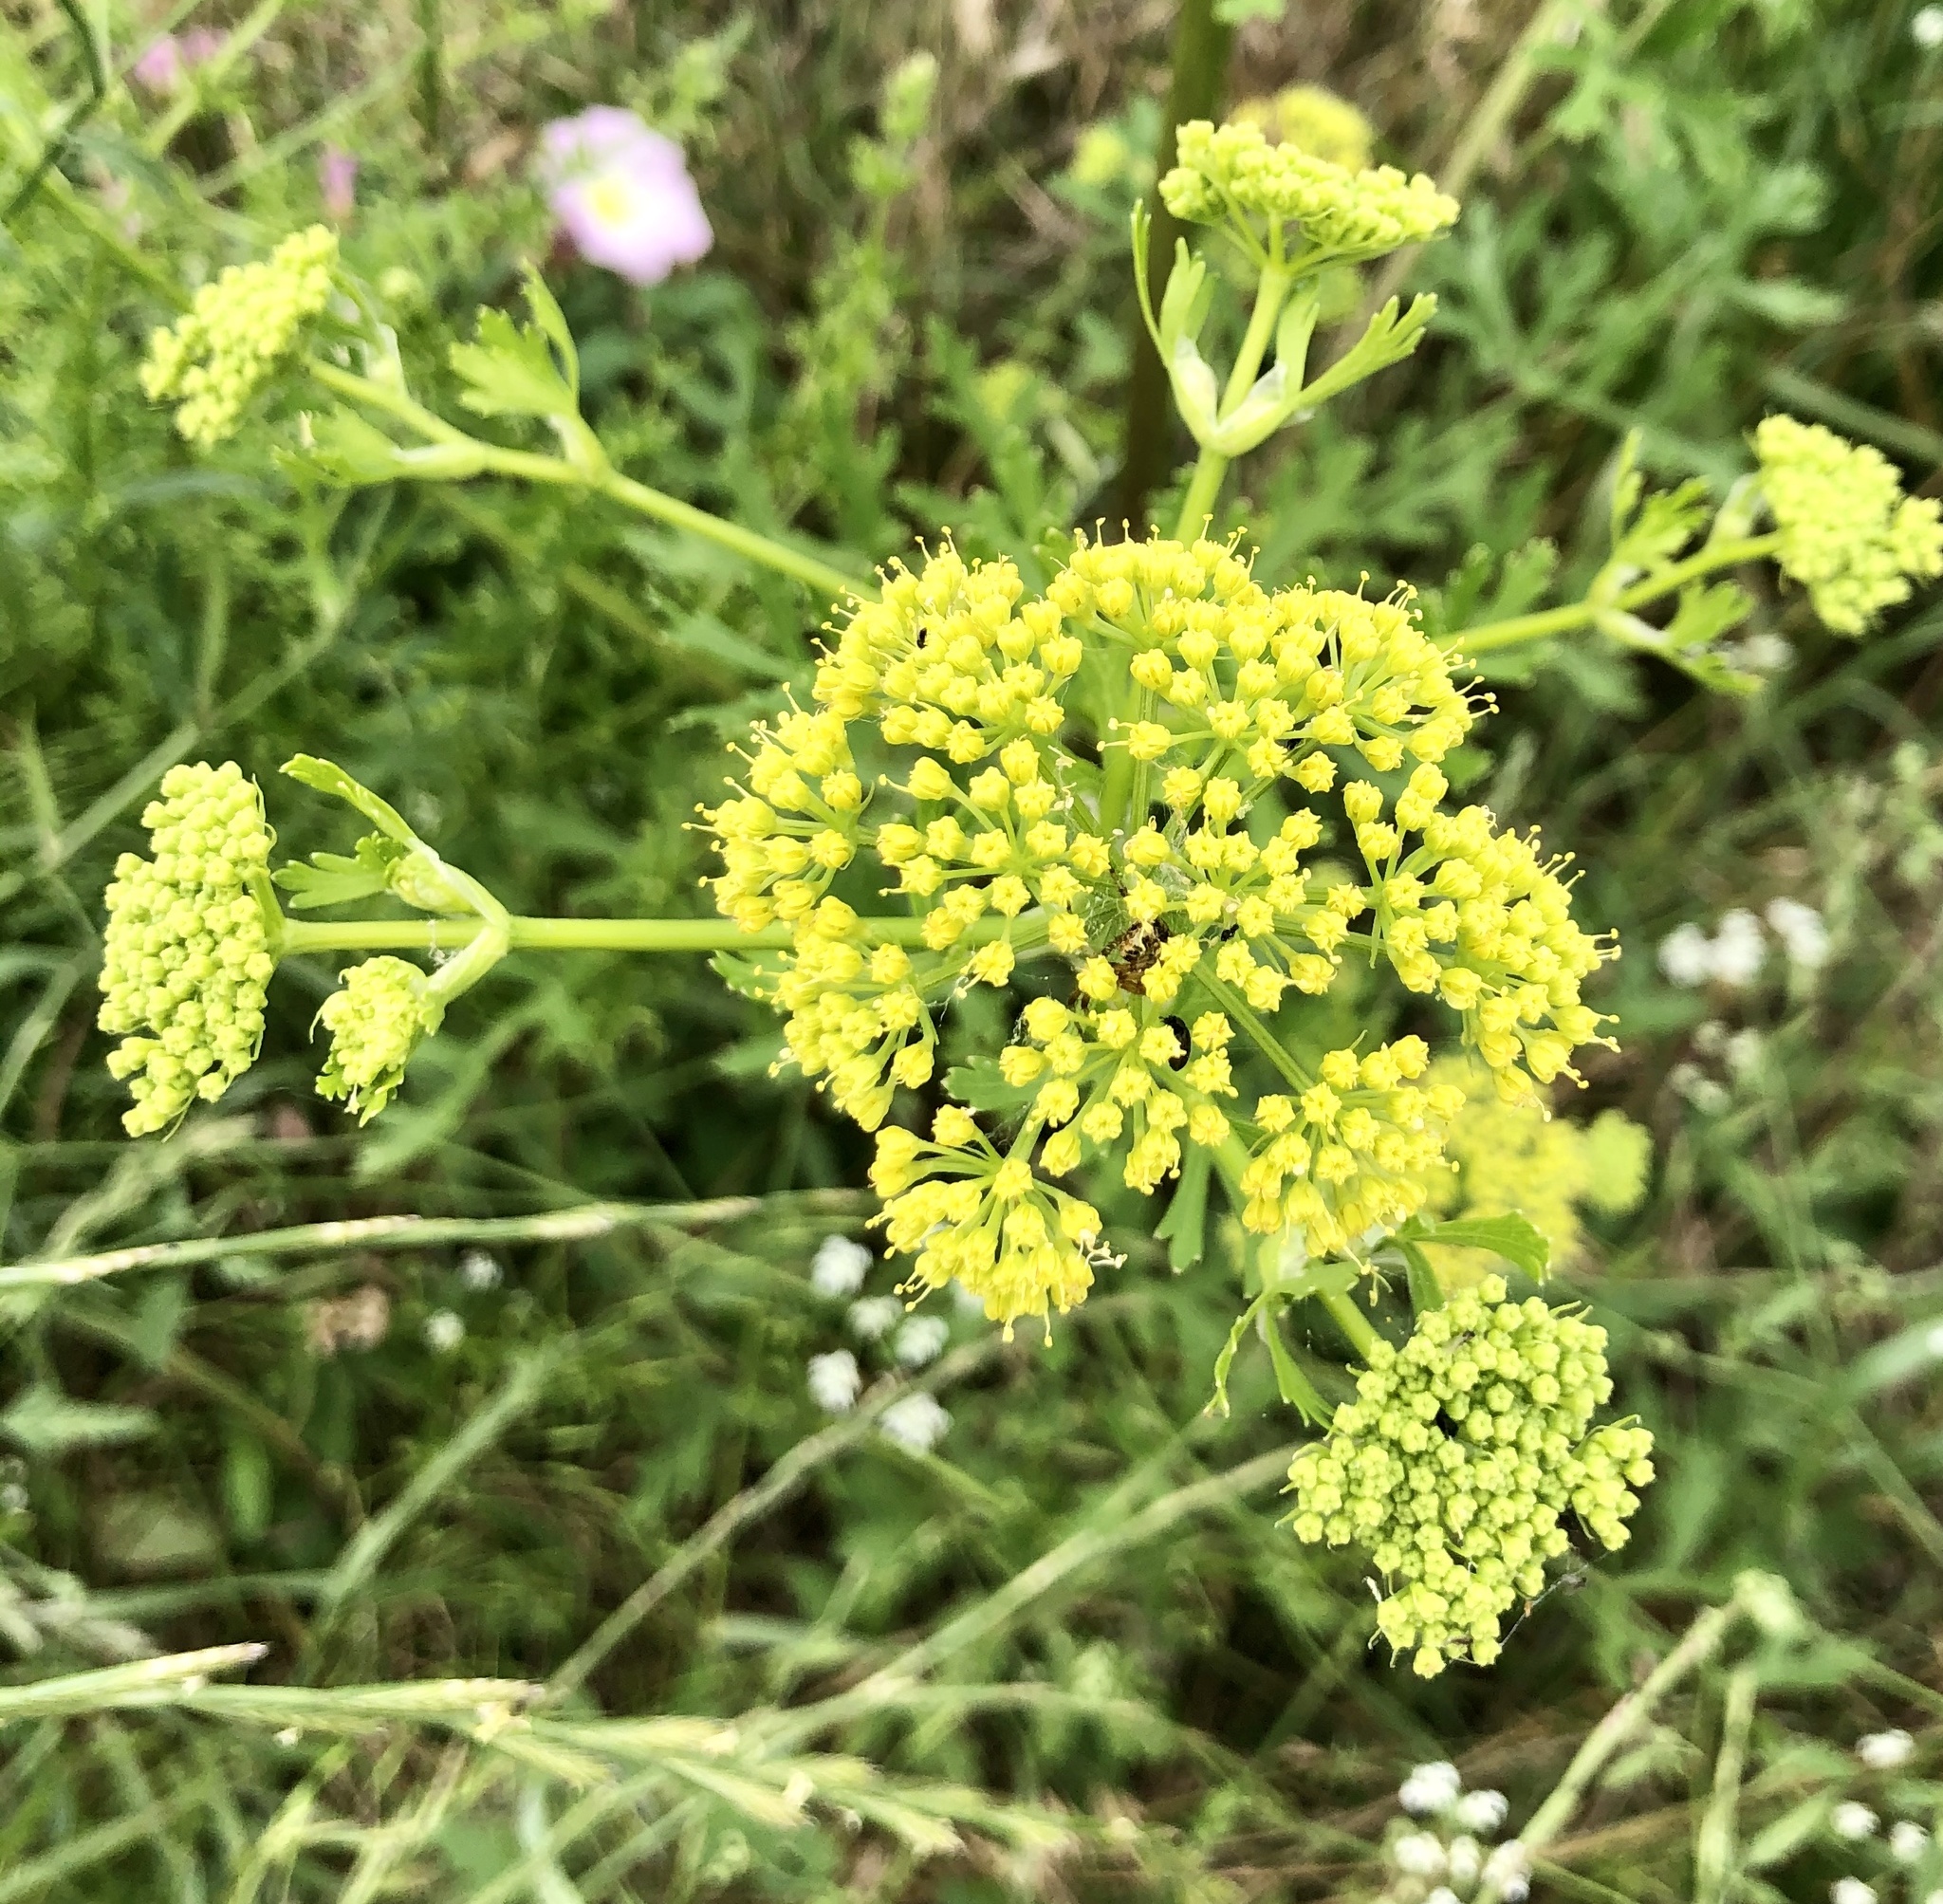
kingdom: Plantae
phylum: Tracheophyta
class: Magnoliopsida
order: Apiales
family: Apiaceae
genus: Polytaenia
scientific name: Polytaenia texana
